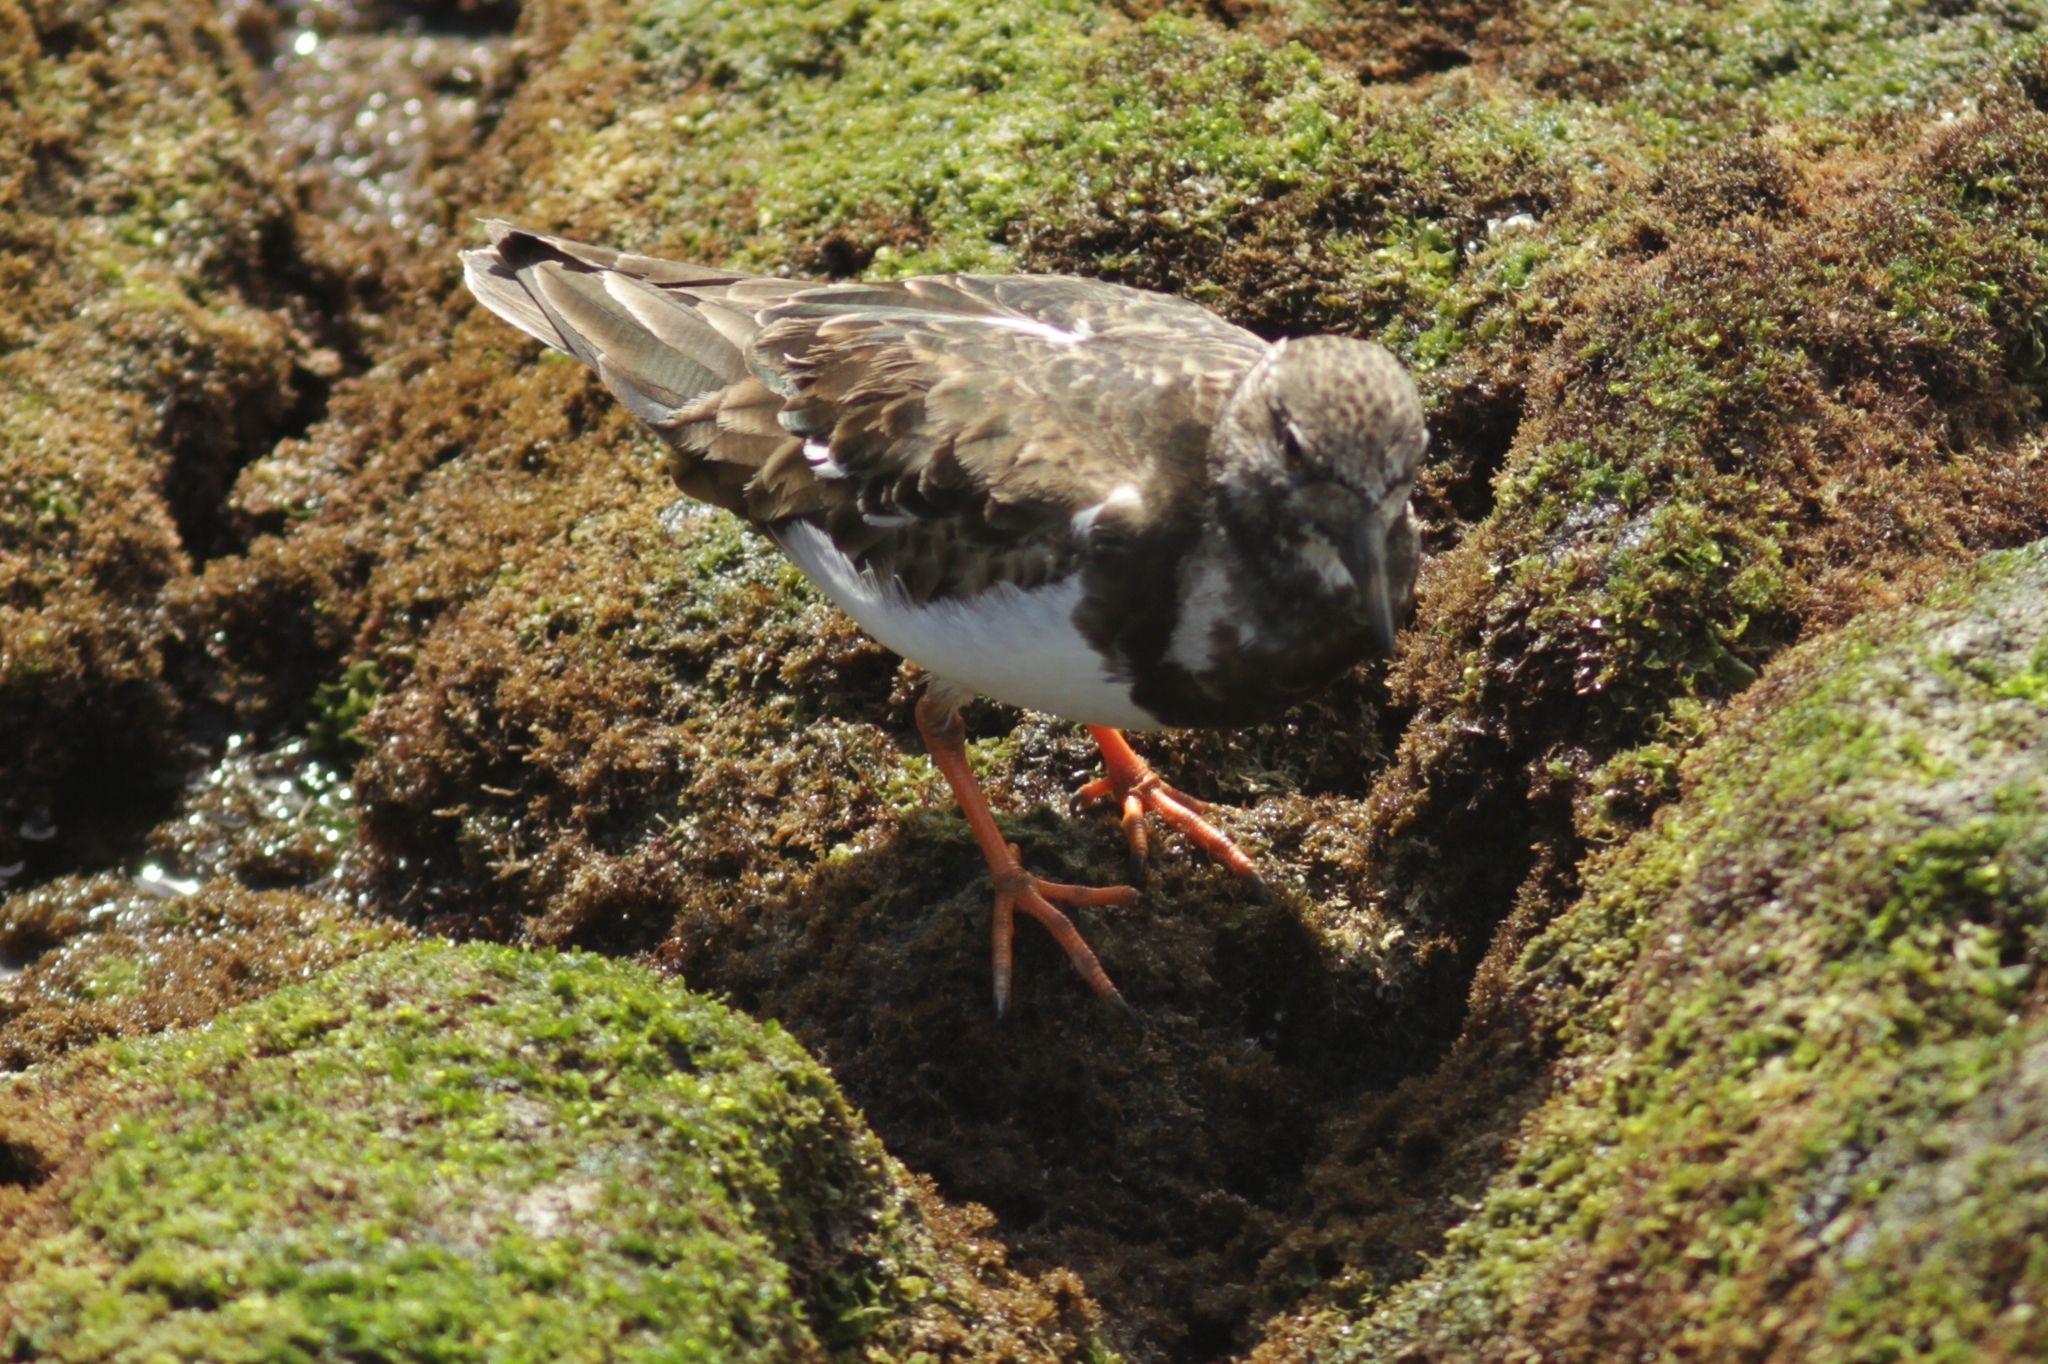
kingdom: Animalia
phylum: Chordata
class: Aves
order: Charadriiformes
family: Scolopacidae
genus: Arenaria
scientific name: Arenaria interpres
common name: Ruddy turnstone
